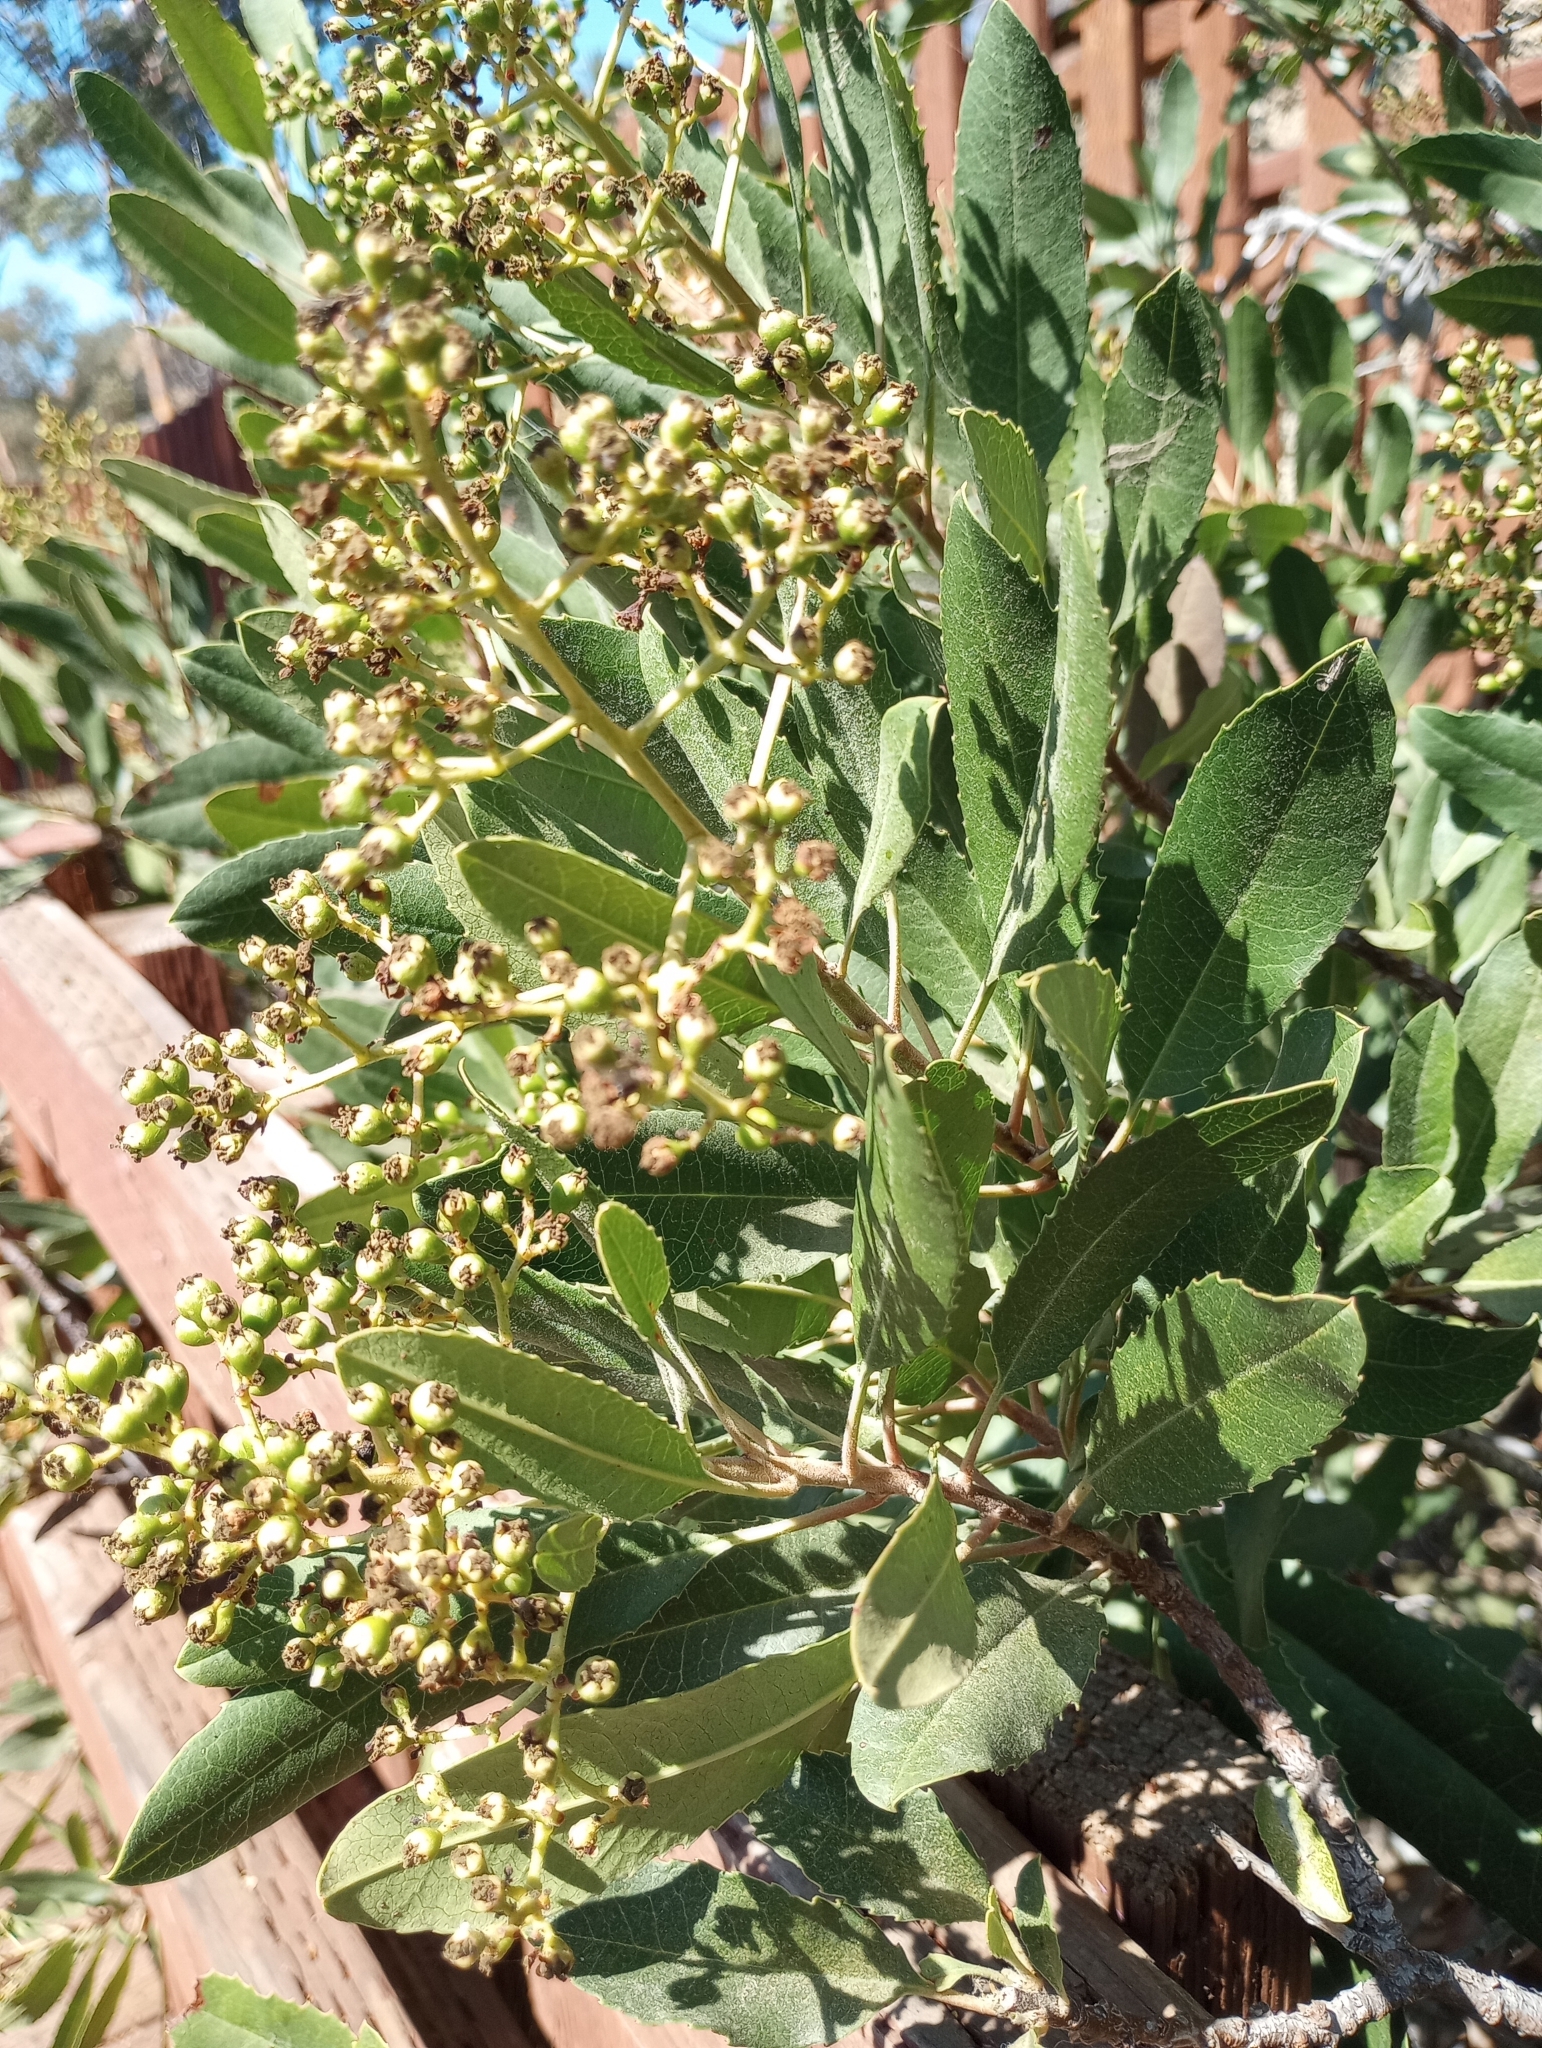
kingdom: Plantae
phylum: Tracheophyta
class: Magnoliopsida
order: Rosales
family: Rosaceae
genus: Heteromeles
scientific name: Heteromeles arbutifolia
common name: California-holly
